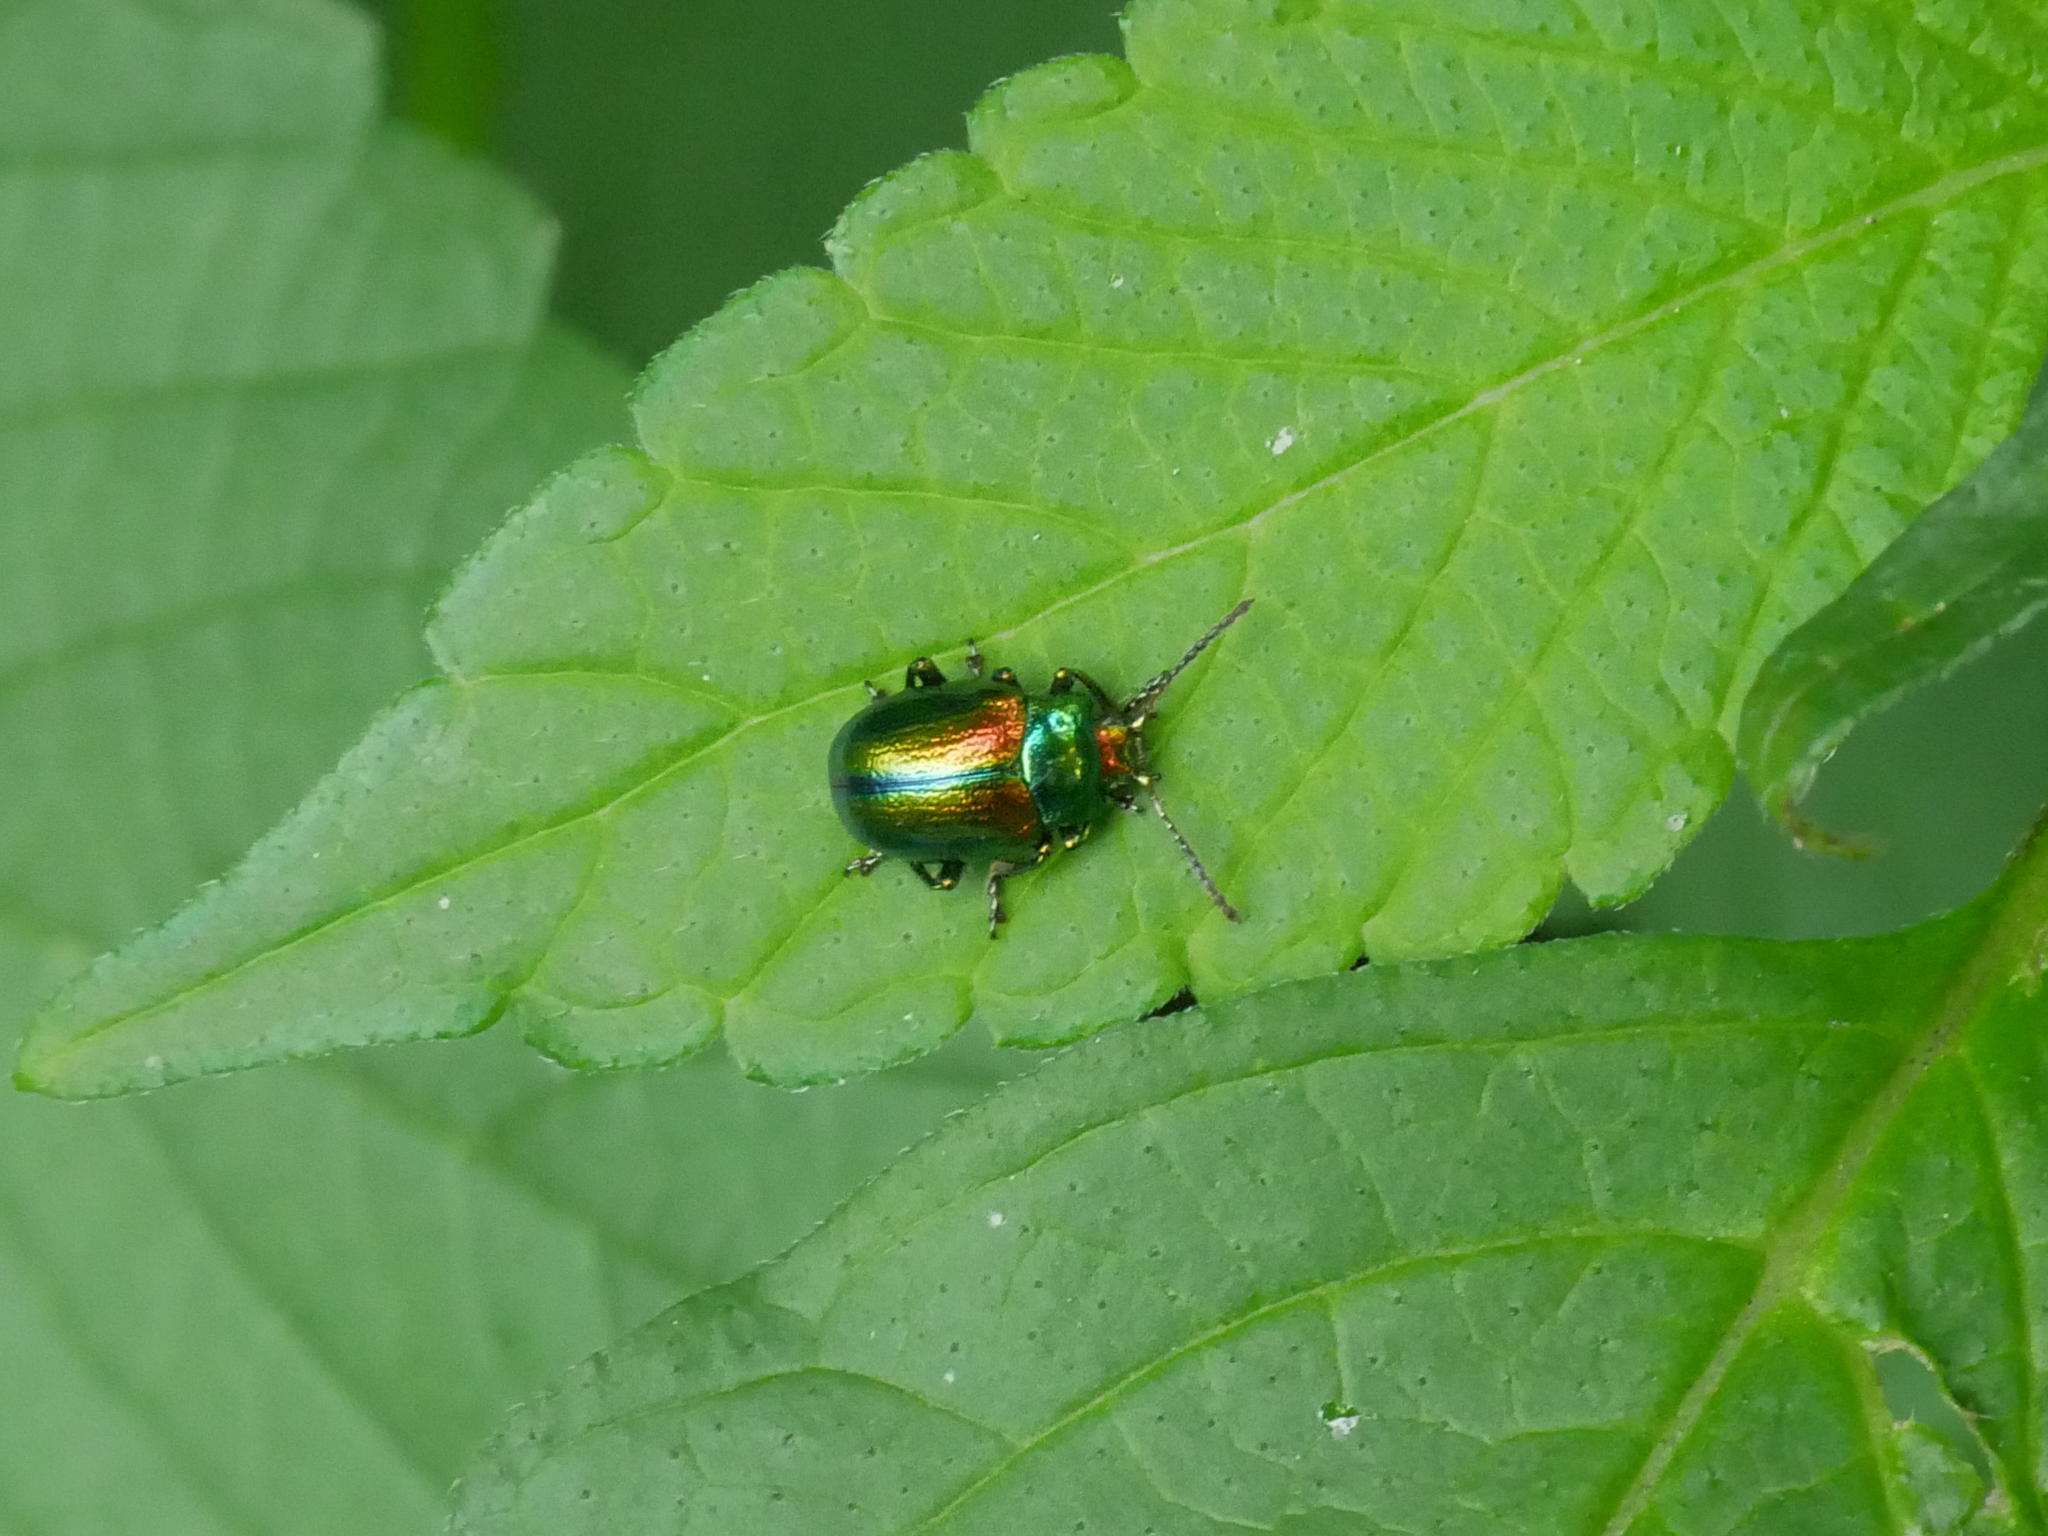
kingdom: Animalia
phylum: Arthropoda
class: Insecta
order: Coleoptera
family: Chrysomelidae
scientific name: Chrysomelidae
